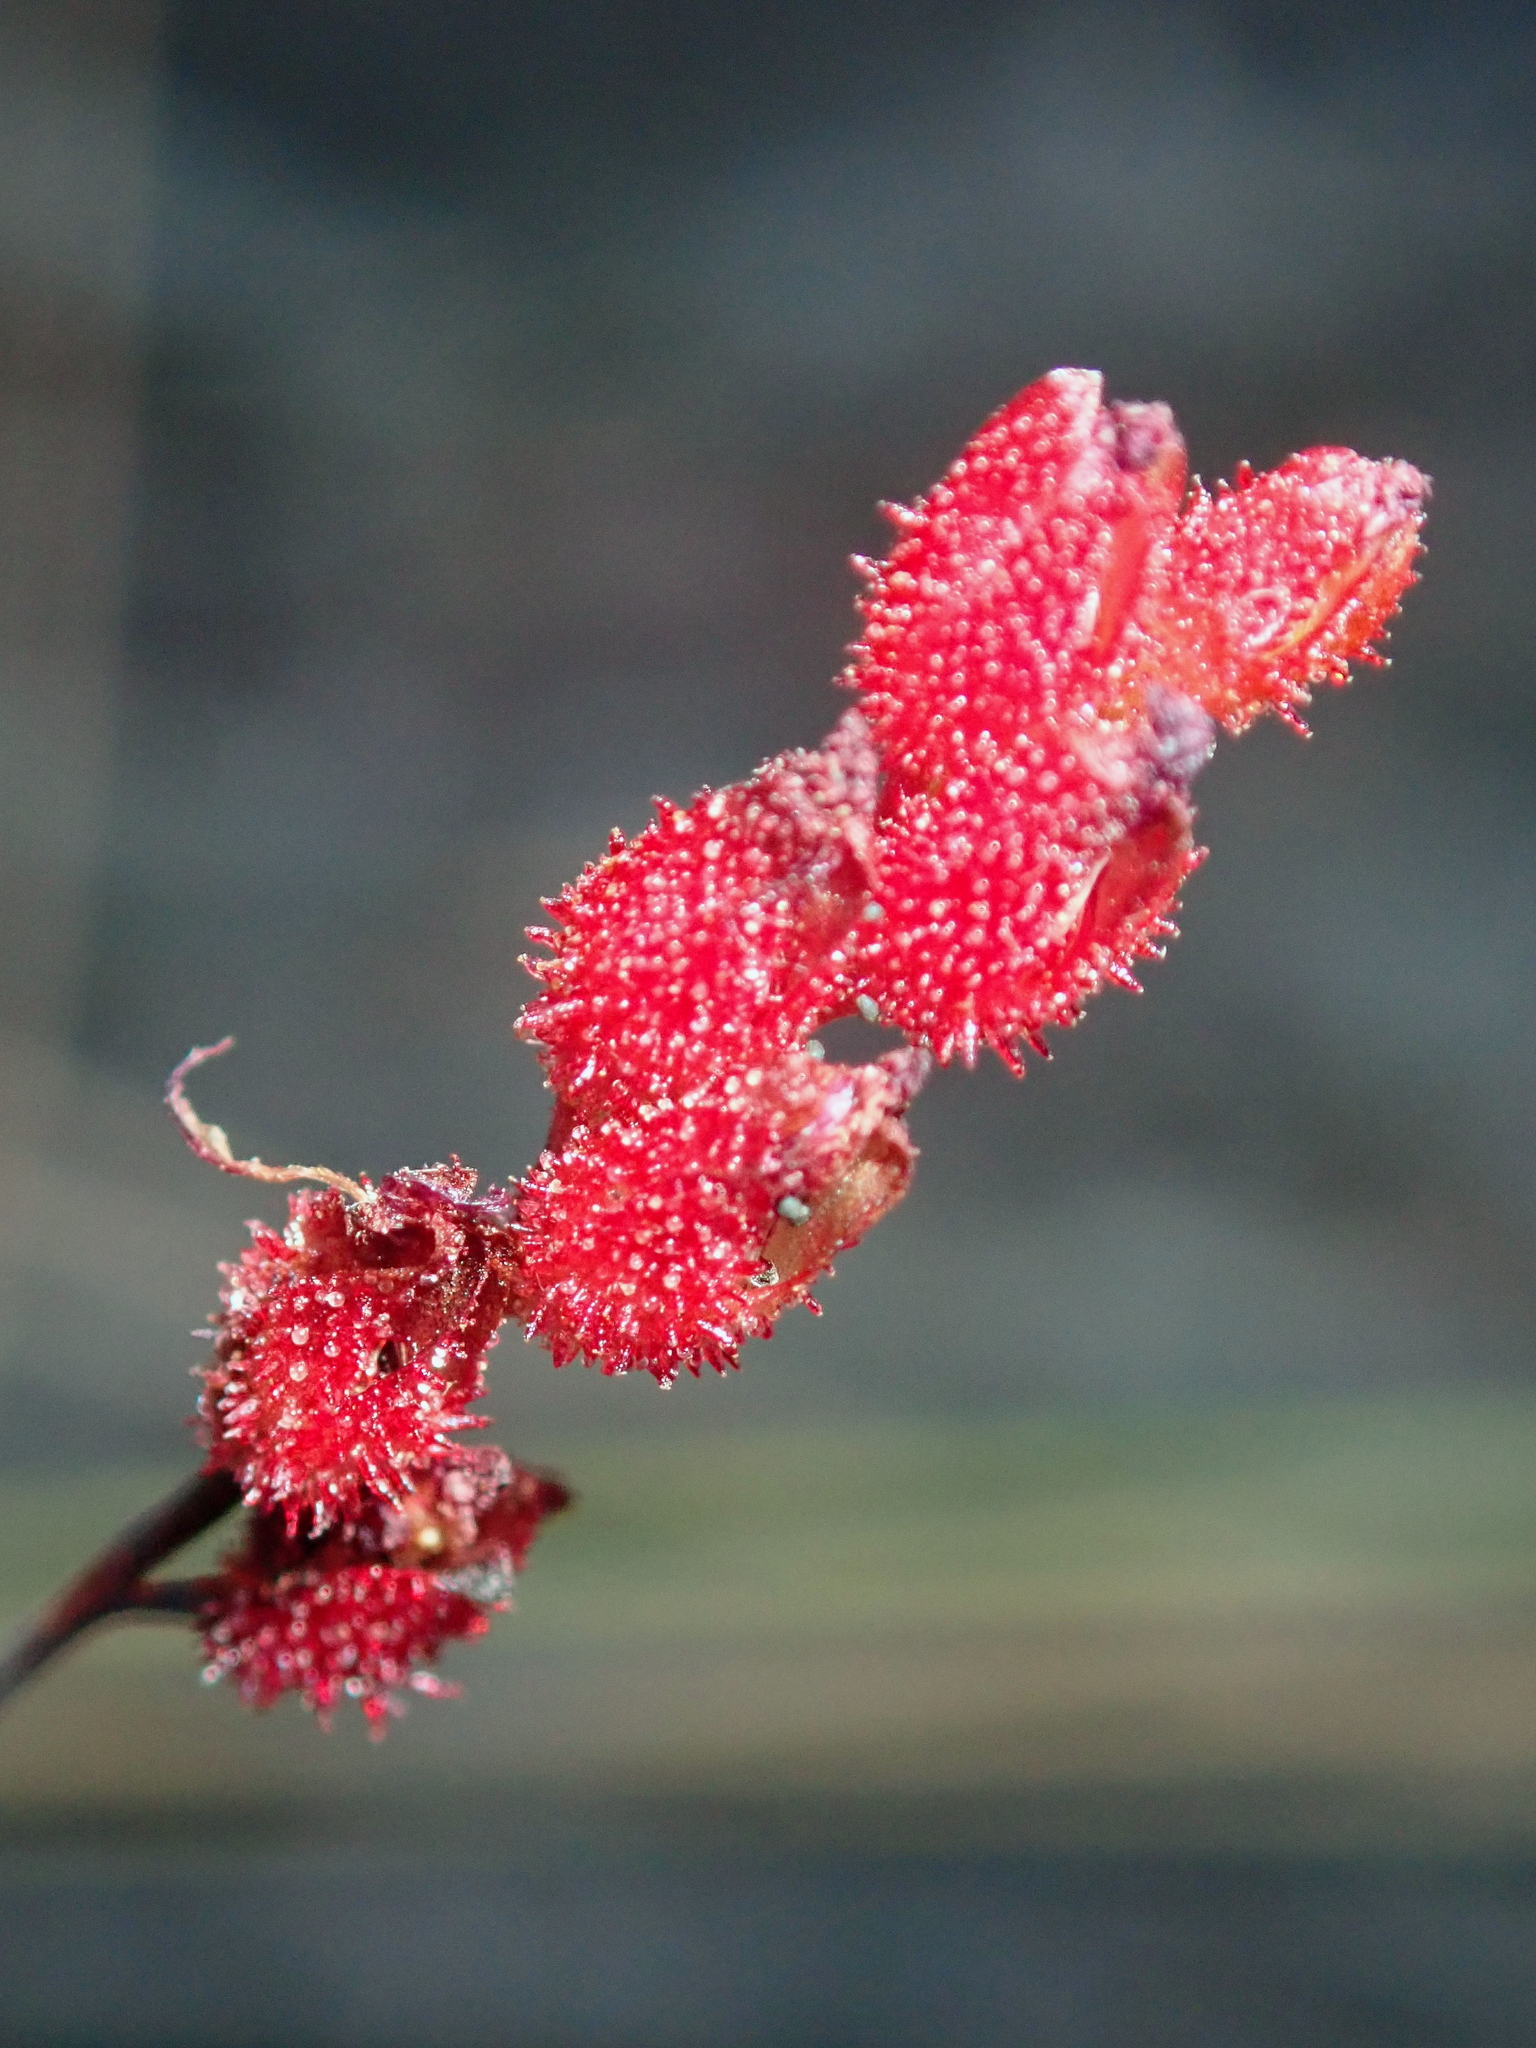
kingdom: Plantae
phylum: Tracheophyta
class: Magnoliopsida
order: Caryophyllales
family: Droseraceae
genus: Drosera
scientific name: Drosera sessilifolia
